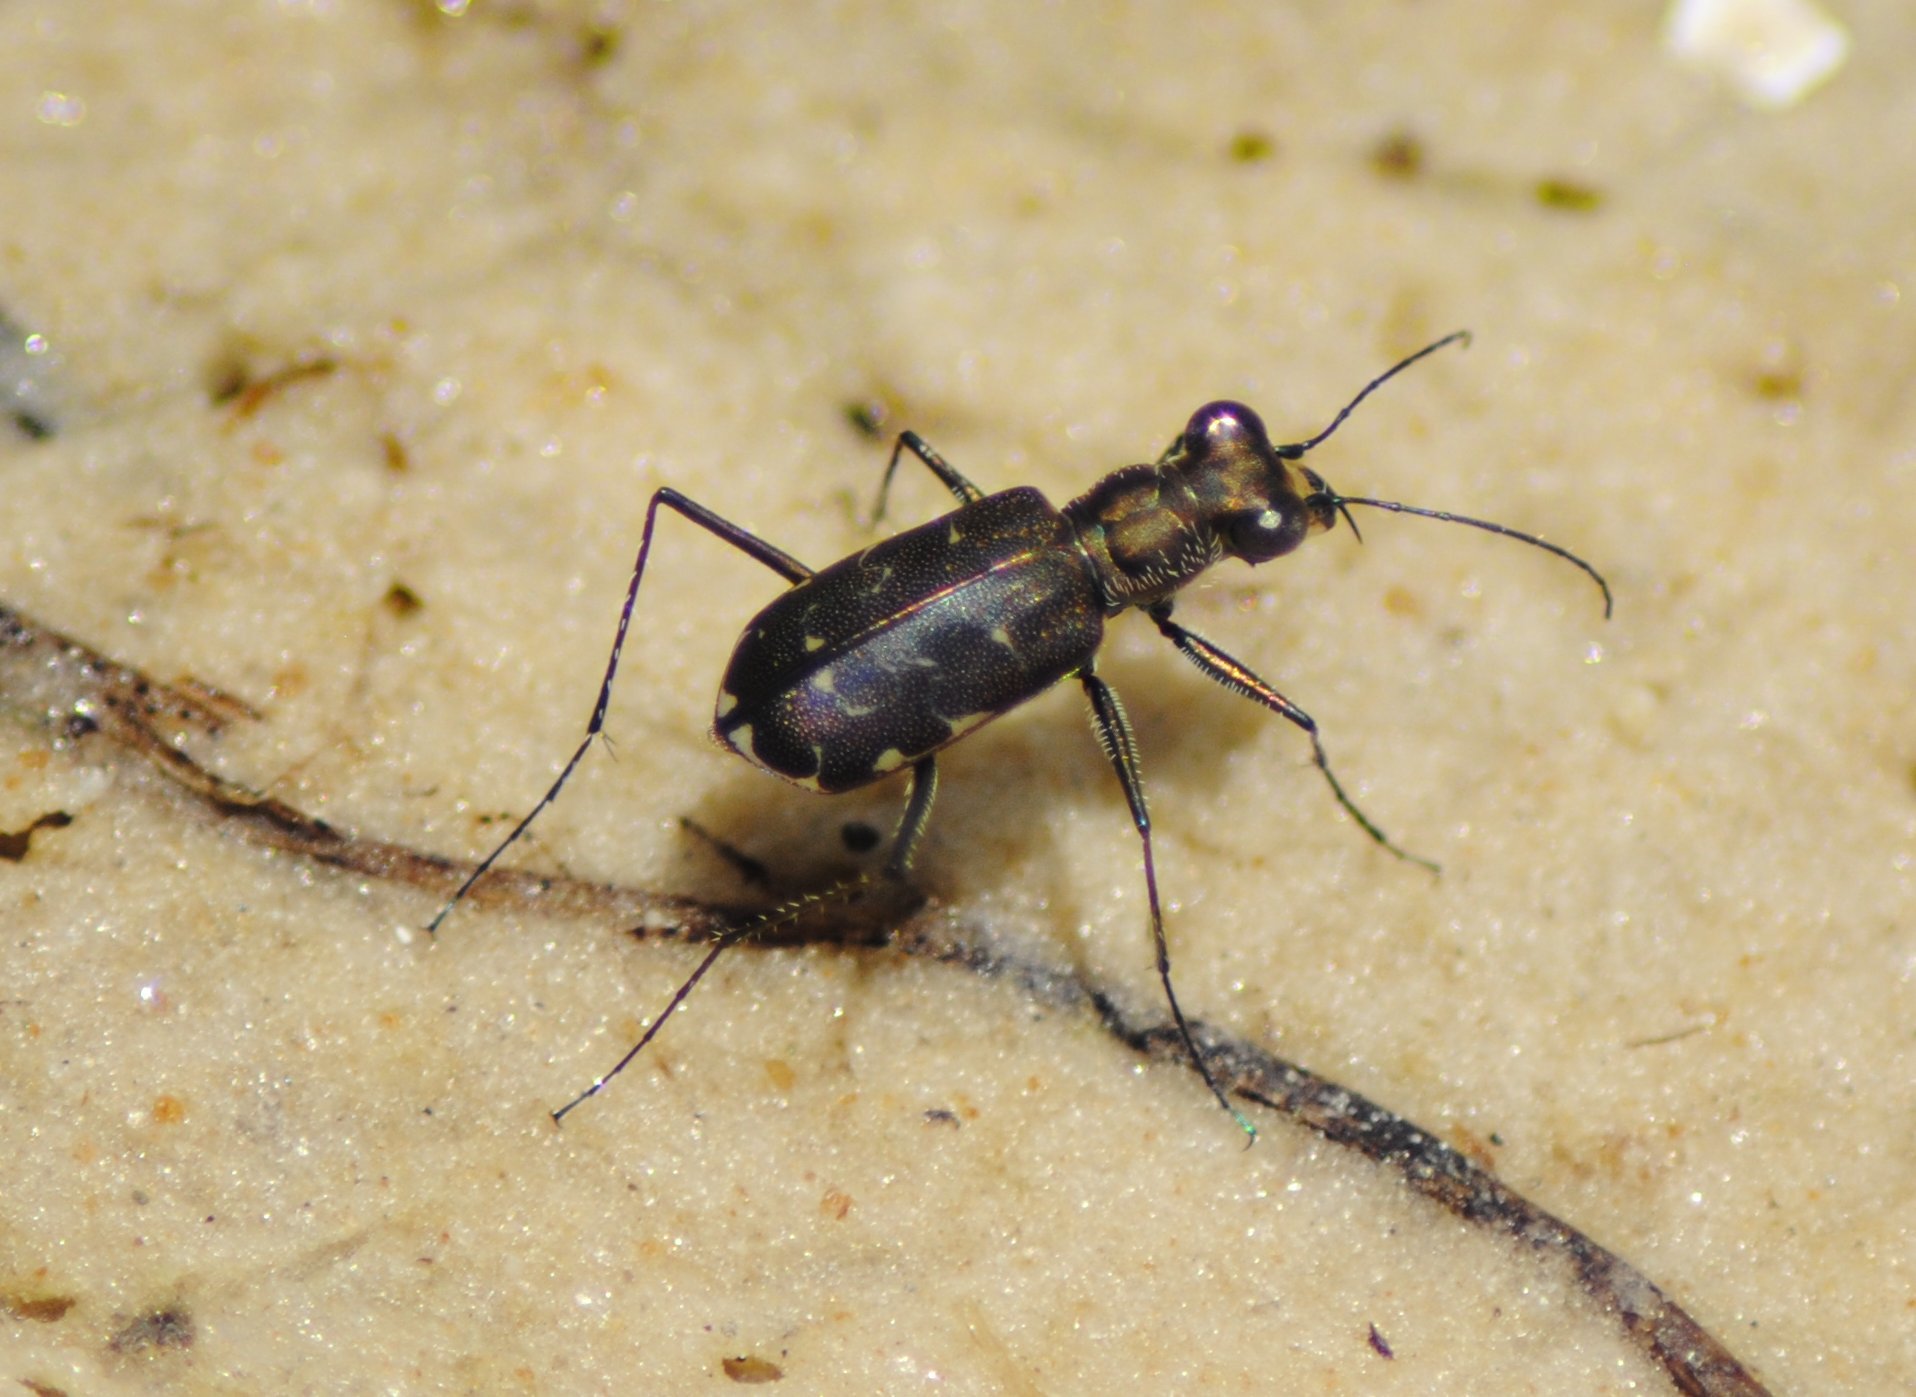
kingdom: Animalia
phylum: Arthropoda
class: Insecta
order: Coleoptera
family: Carabidae
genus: Cicindela
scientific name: Cicindela trifasciata
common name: Mudflat tiger beetle
